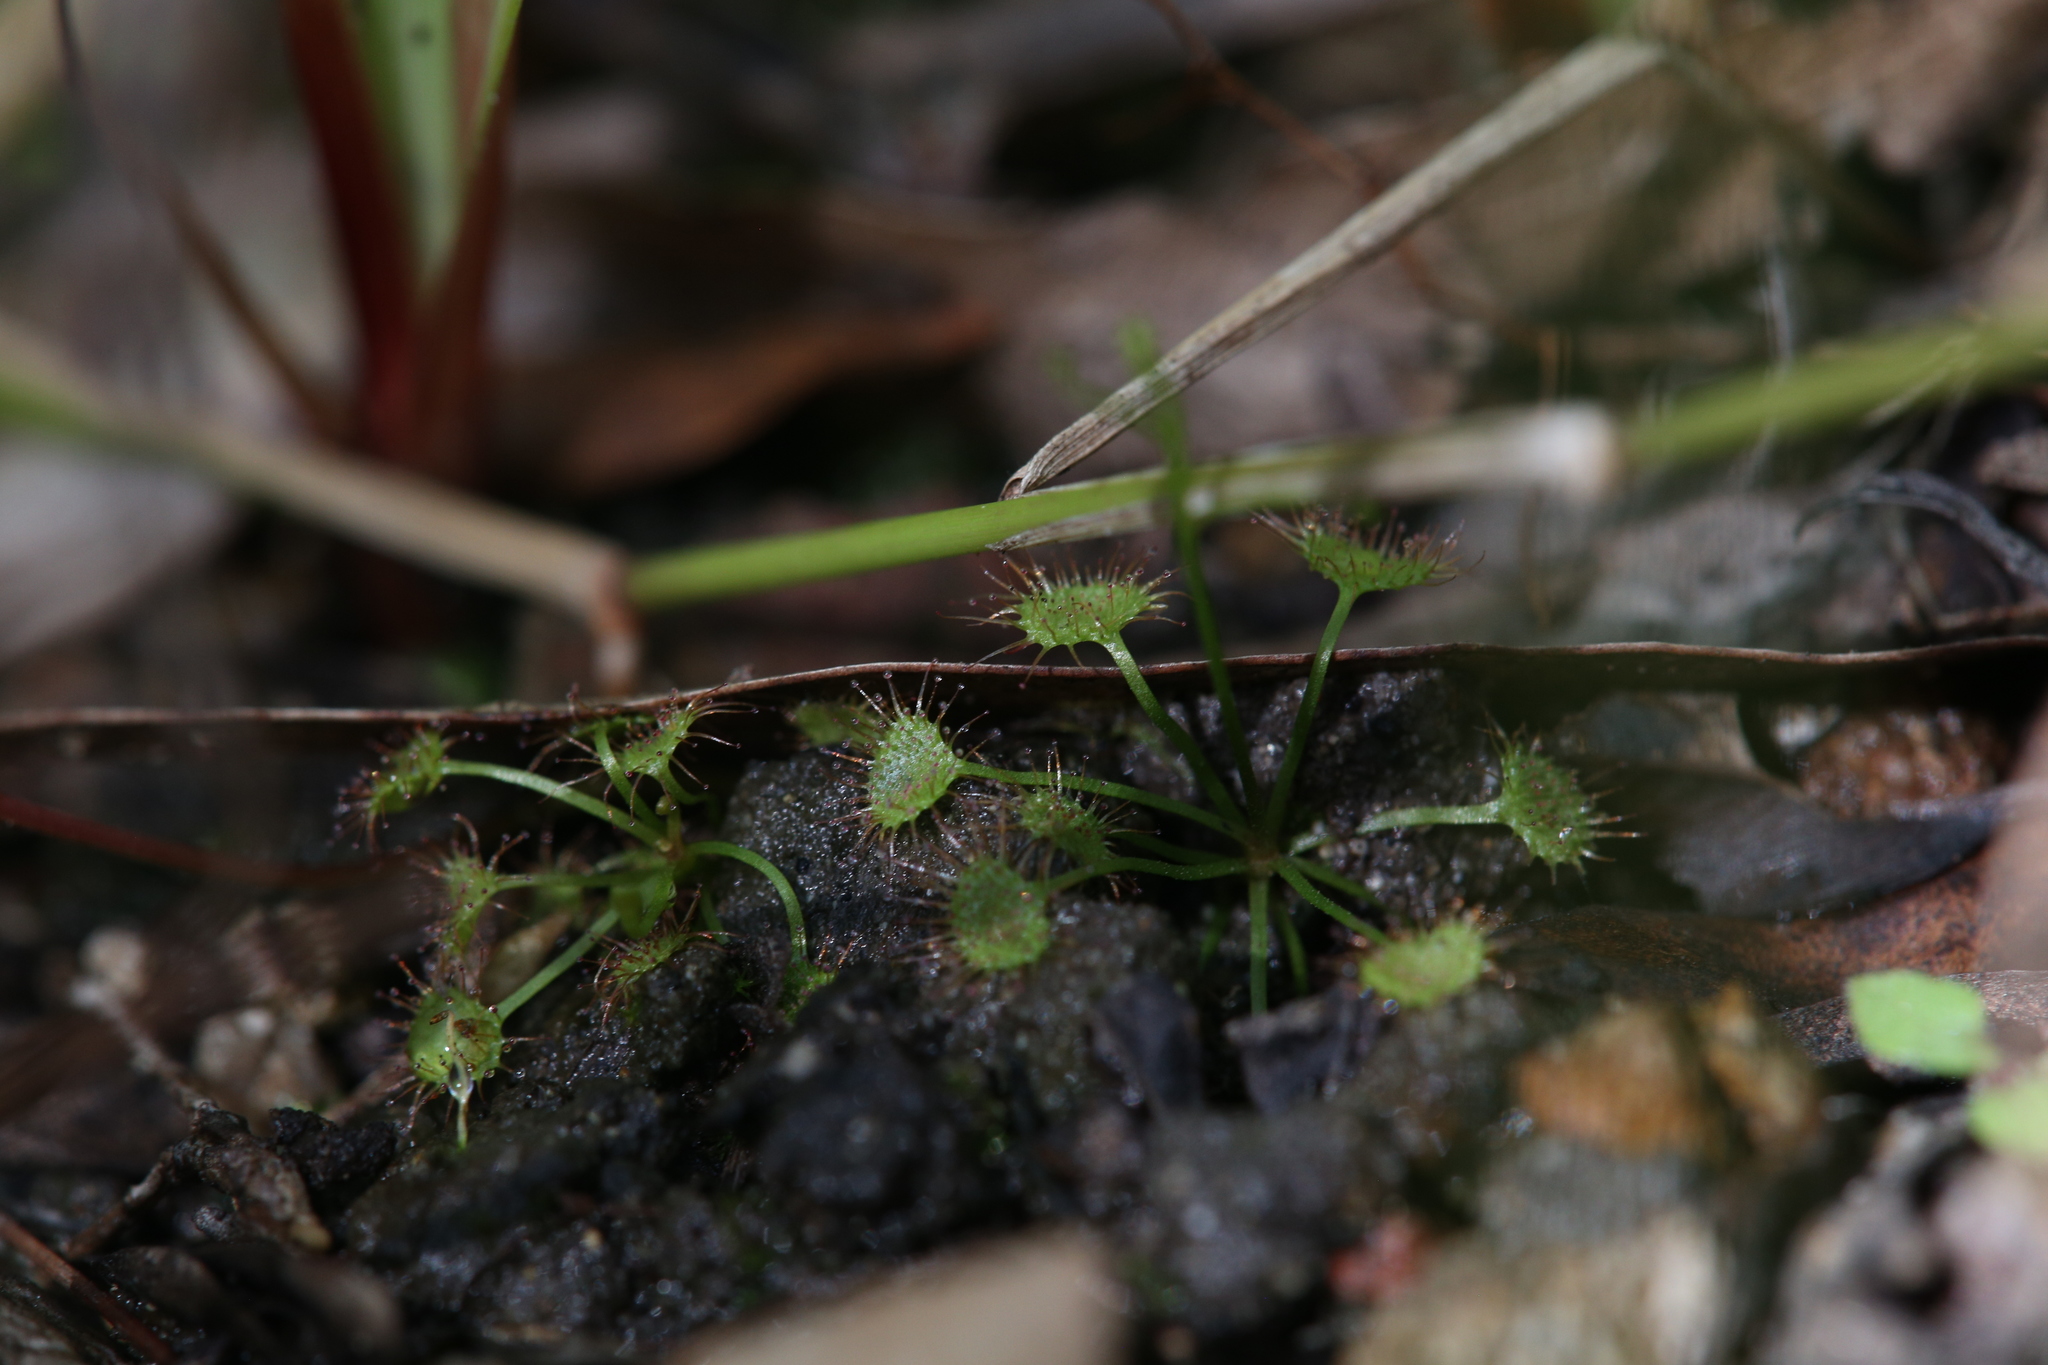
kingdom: Plantae
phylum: Tracheophyta
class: Magnoliopsida
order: Caryophyllales
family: Droseraceae
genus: Drosera
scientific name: Drosera peltata
